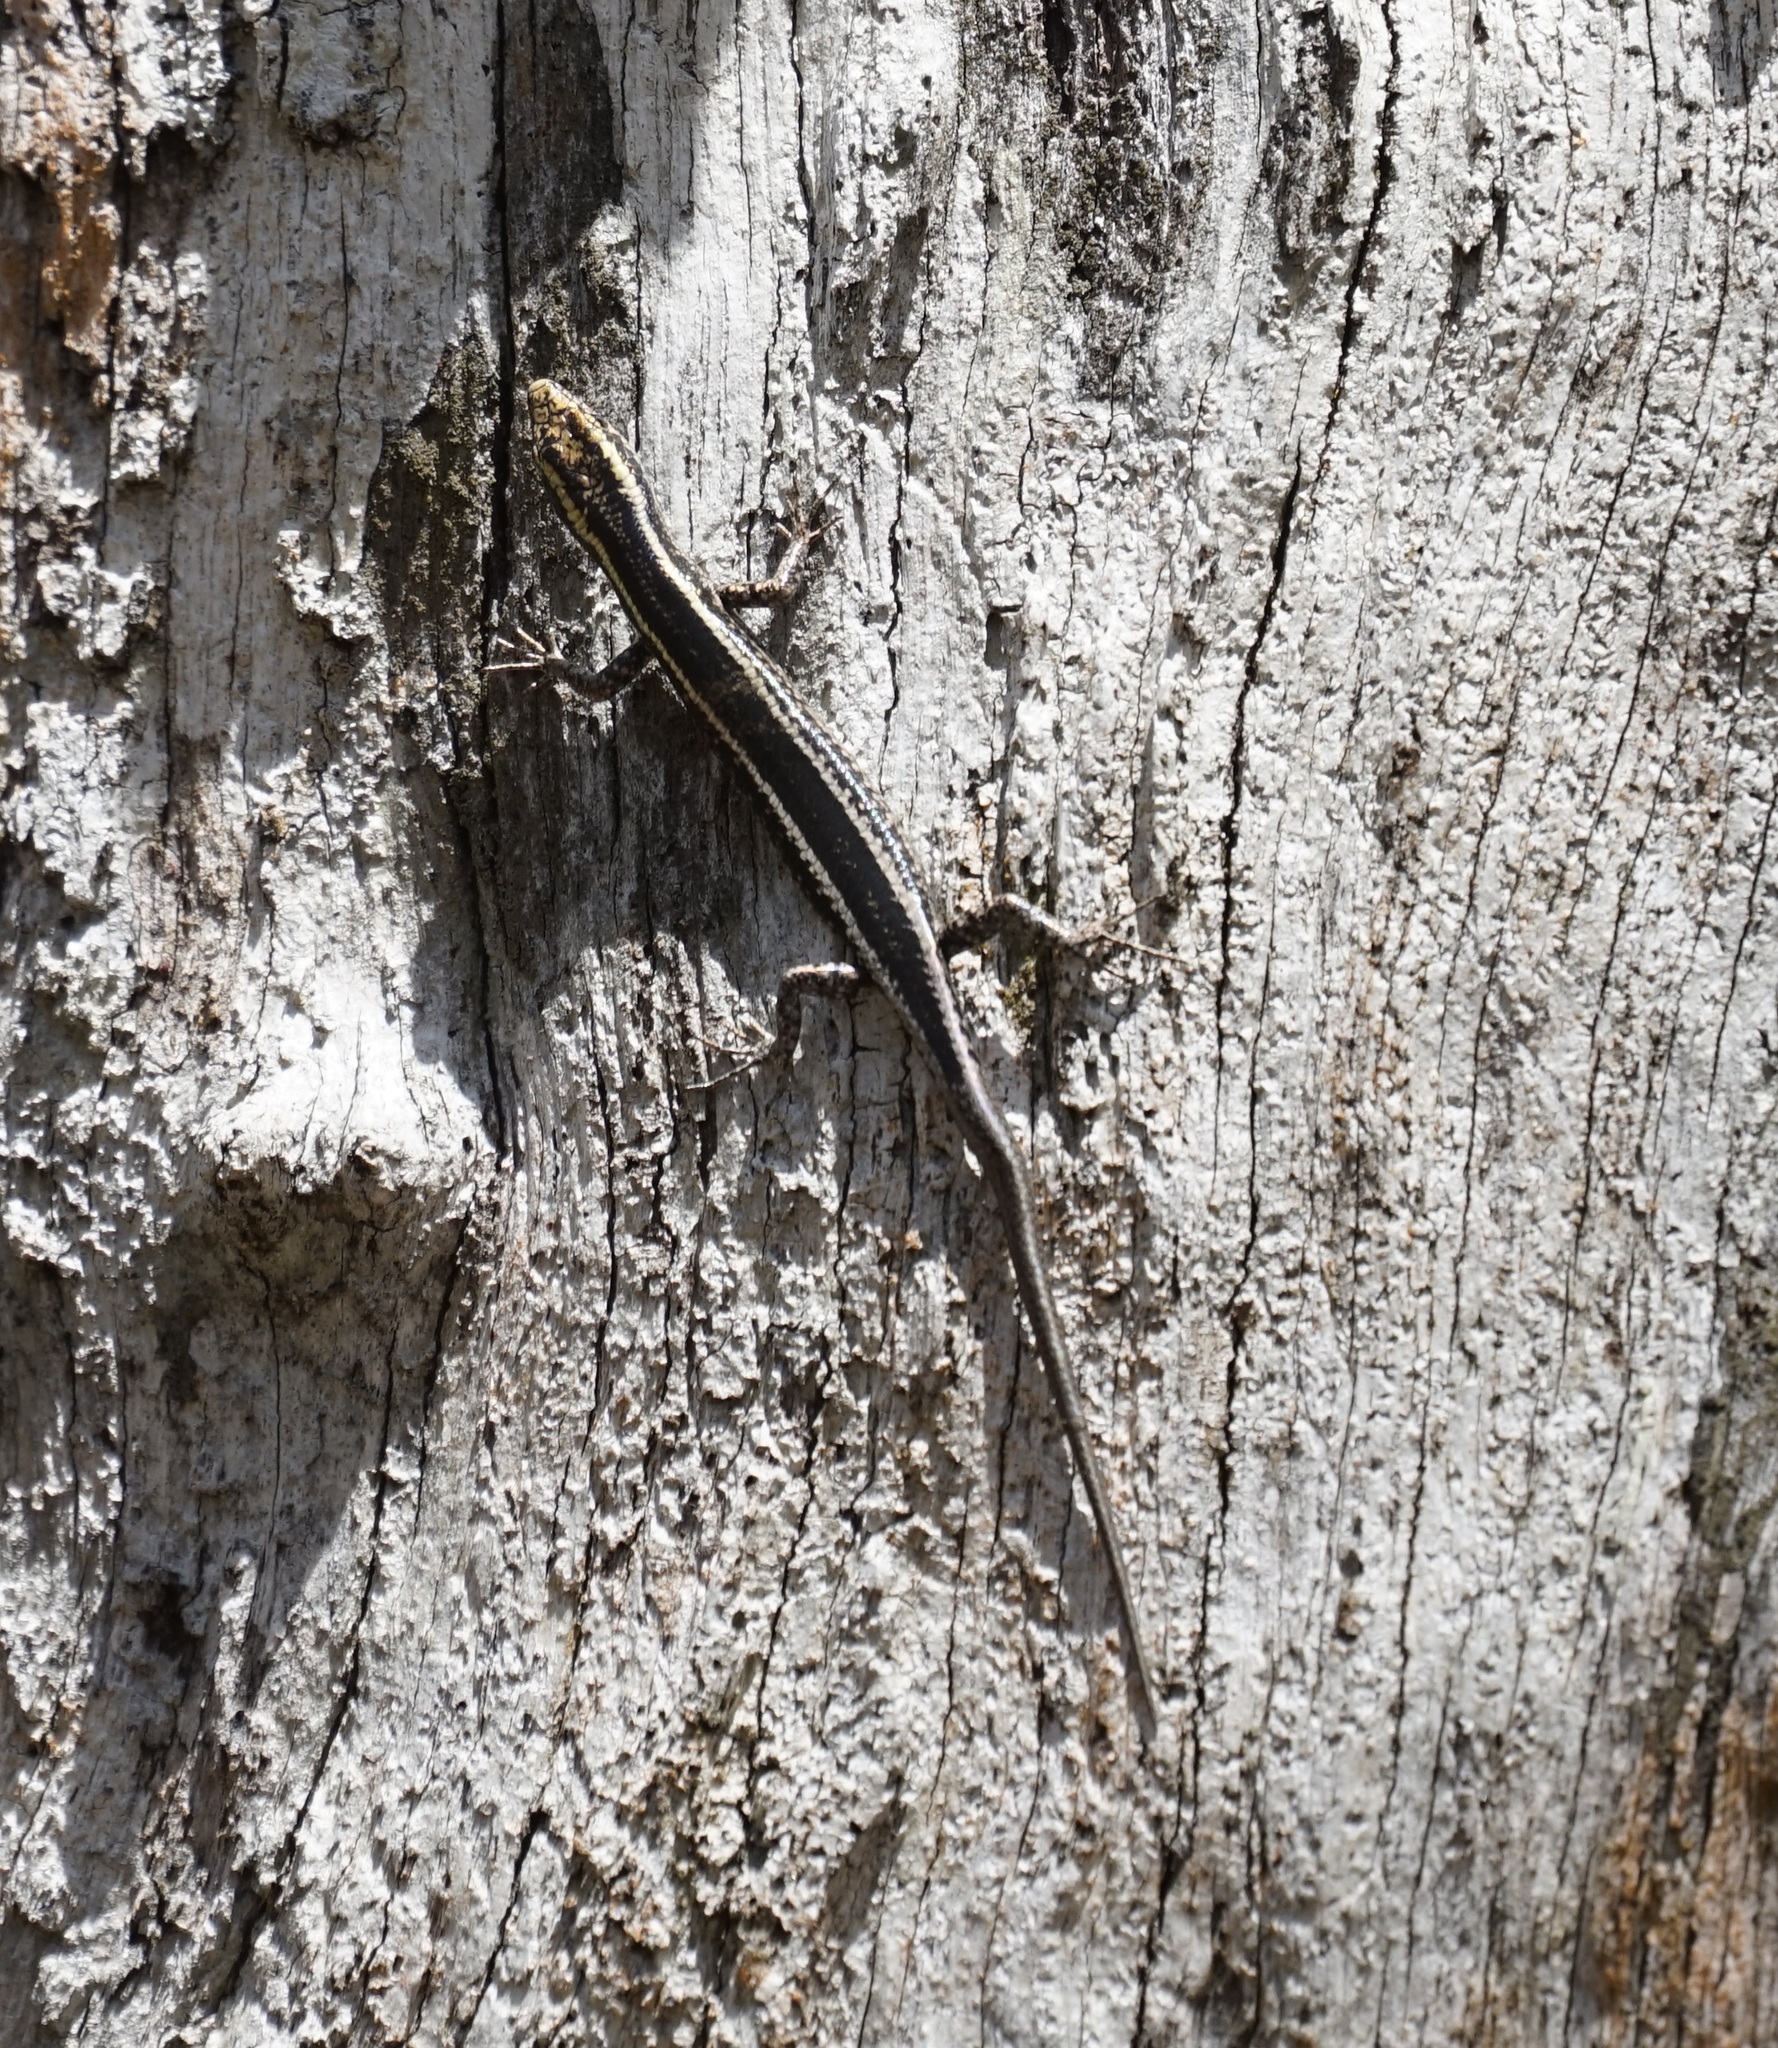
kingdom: Animalia
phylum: Chordata
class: Squamata
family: Scincidae
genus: Cryptoblepharus
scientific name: Cryptoblepharus pulcher
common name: Elegant snake-eyed skink
